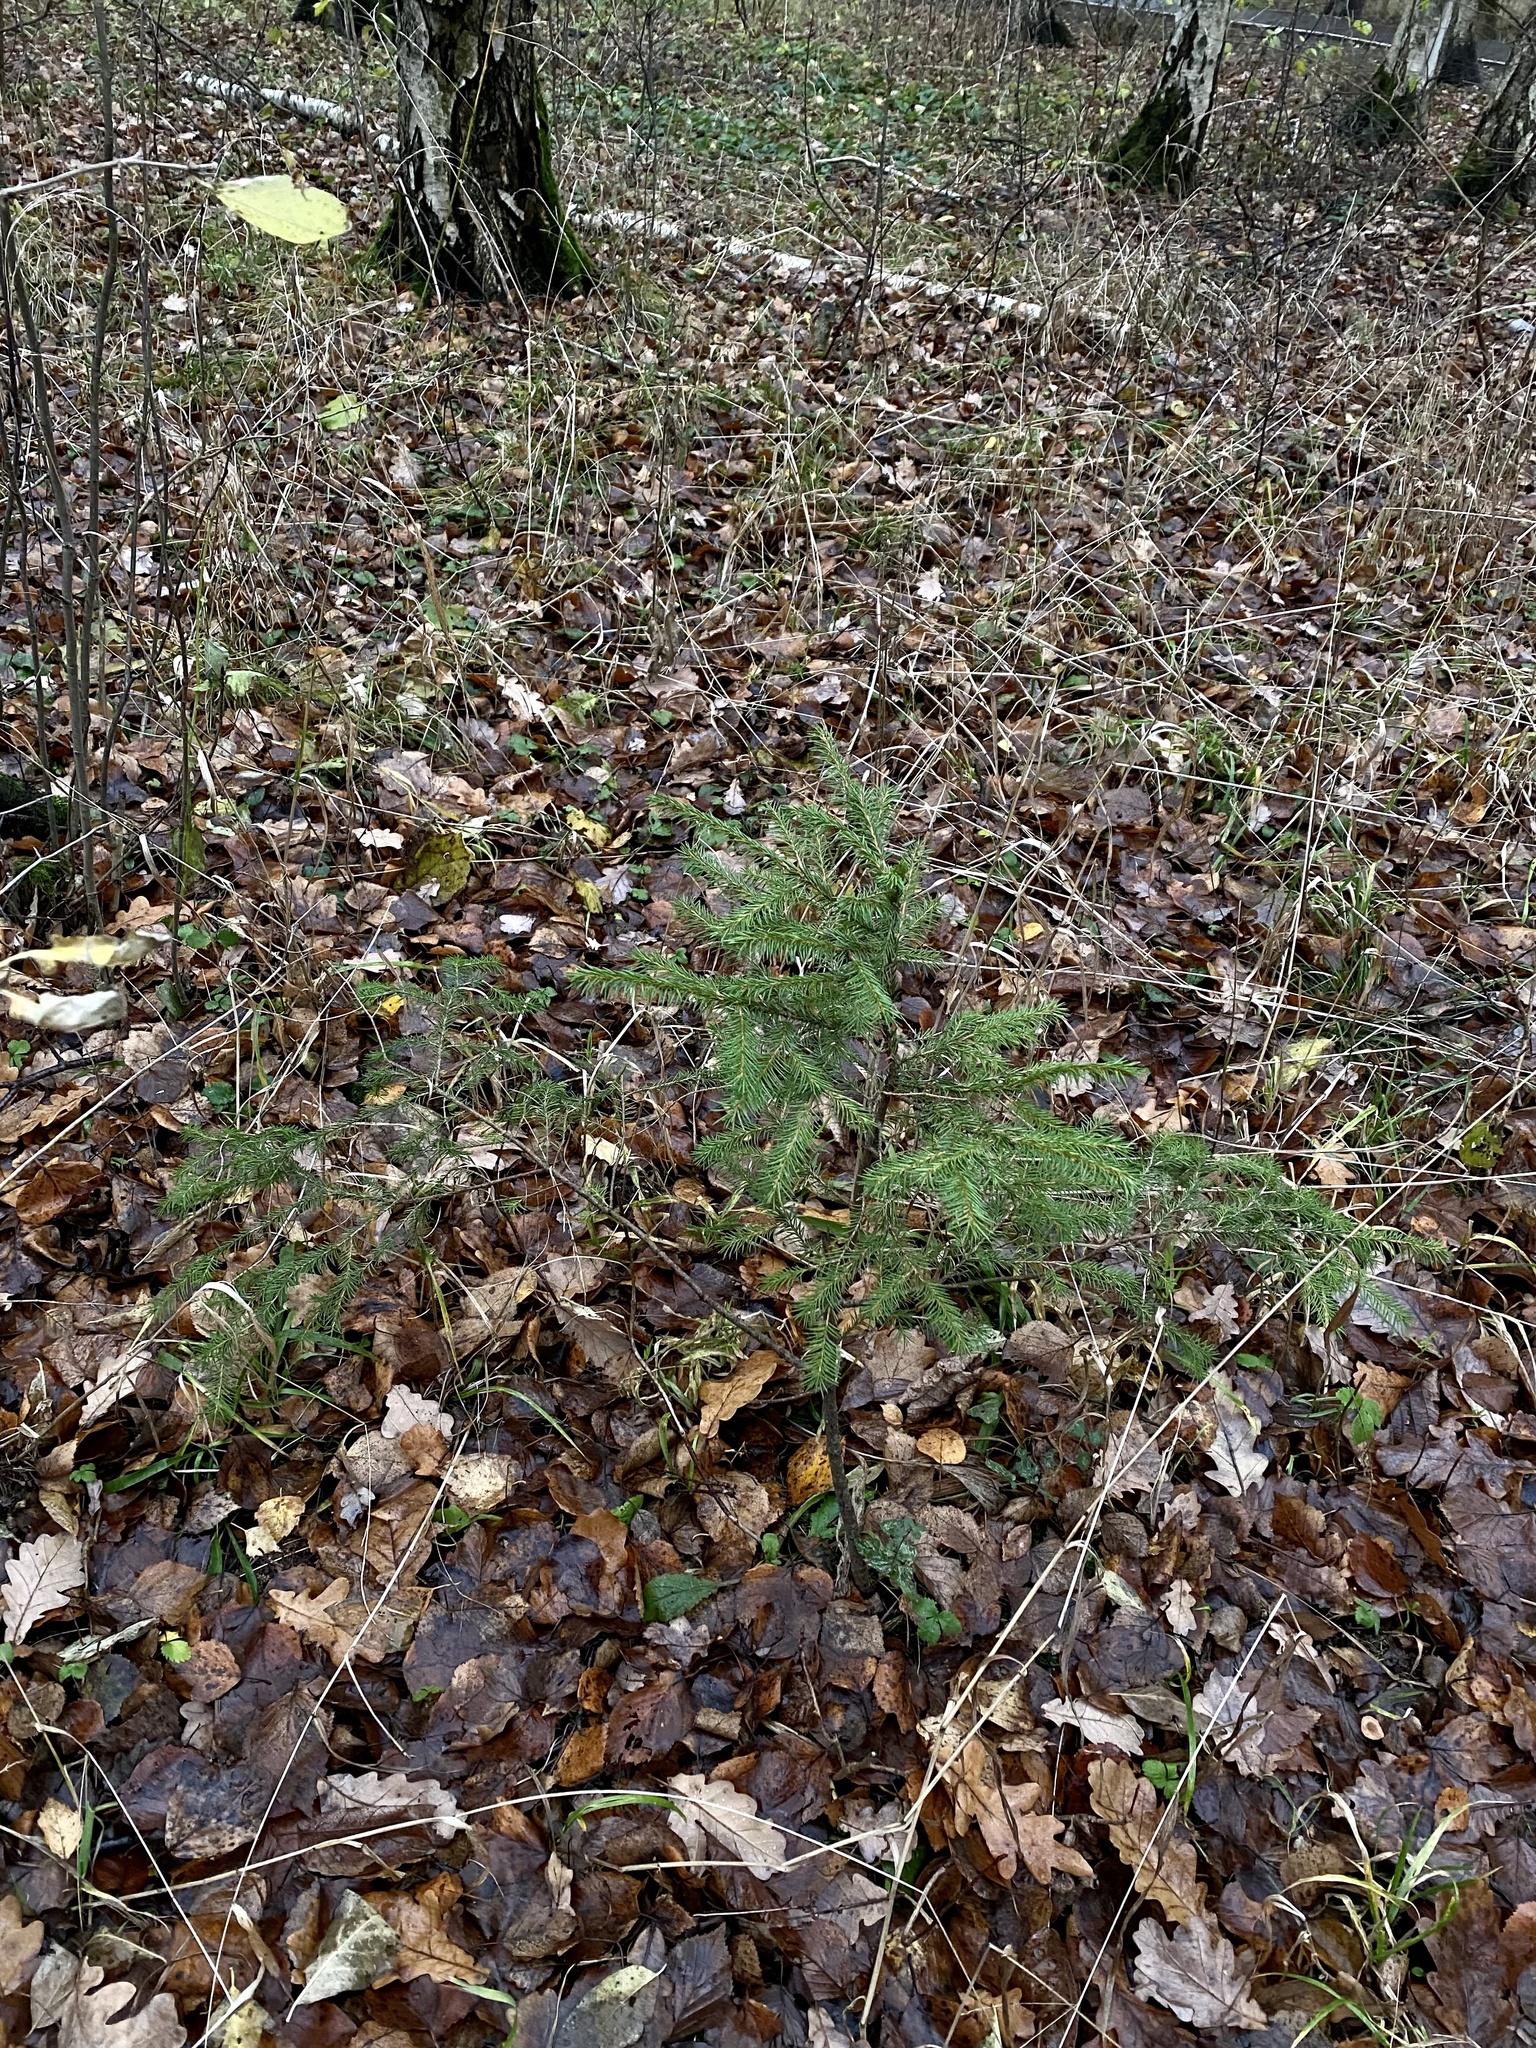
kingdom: Plantae
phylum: Tracheophyta
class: Pinopsida
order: Pinales
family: Pinaceae
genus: Picea
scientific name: Picea abies
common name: Norway spruce
